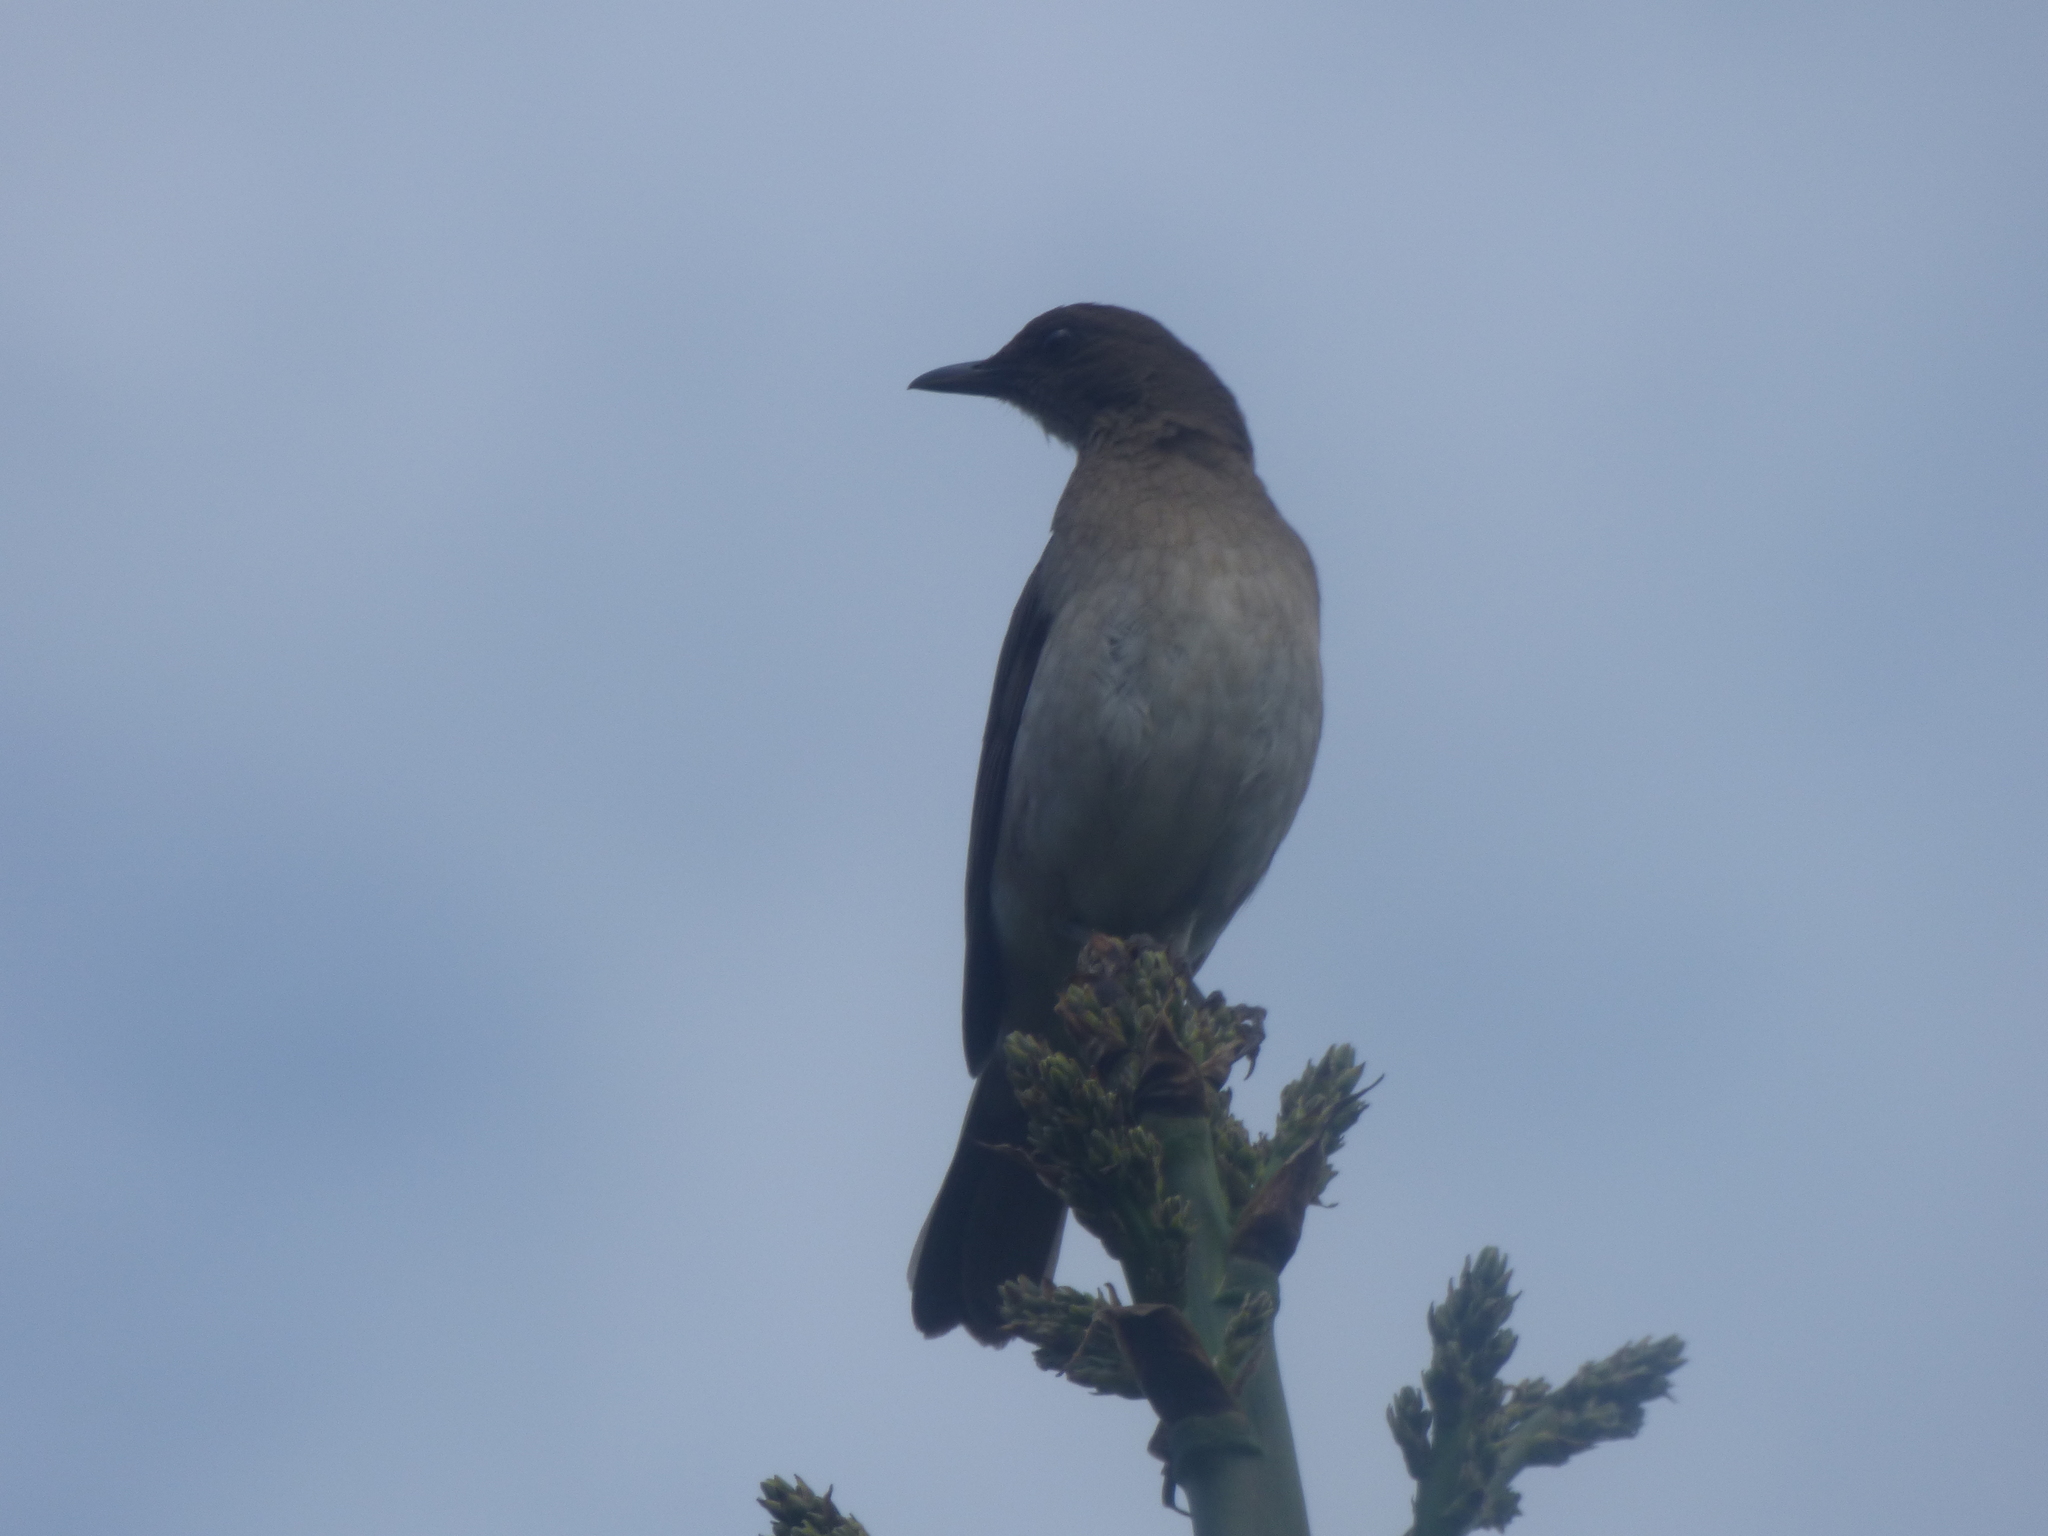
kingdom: Animalia
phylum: Chordata
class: Aves
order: Passeriformes
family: Turdidae
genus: Turdus
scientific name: Turdus ignobilis
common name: Black-billed thrush
